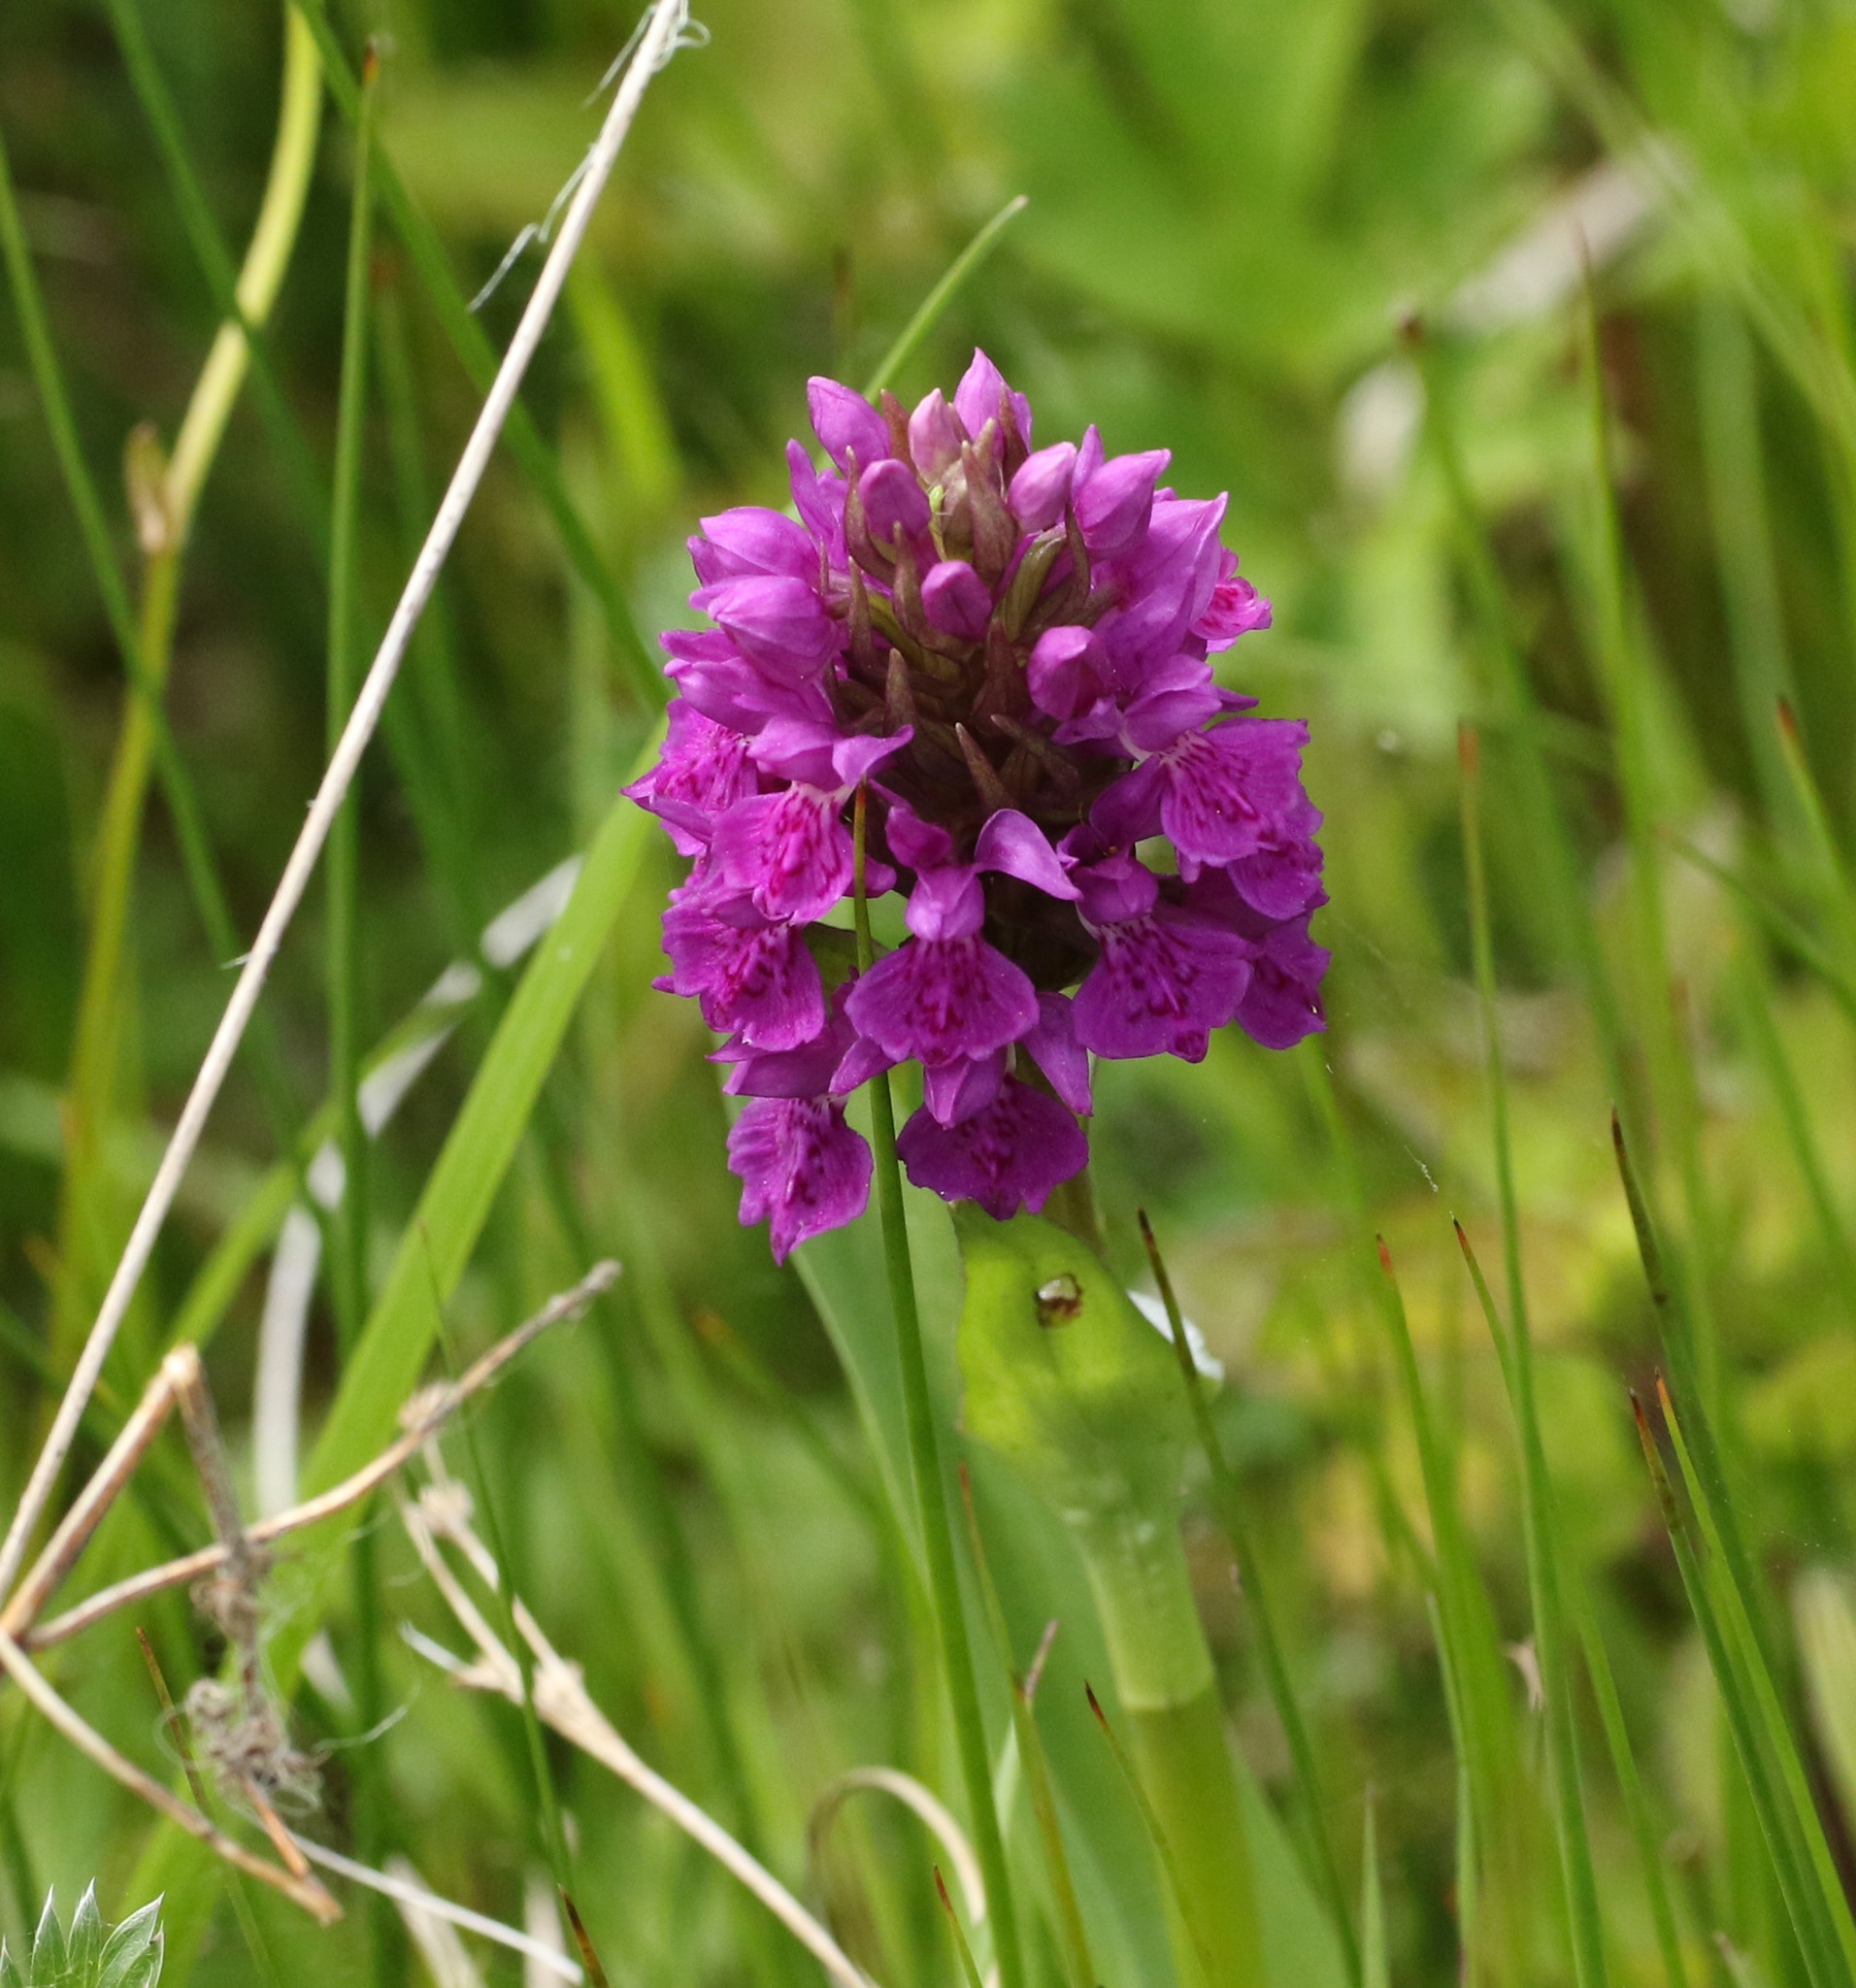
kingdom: Plantae
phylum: Tracheophyta
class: Liliopsida
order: Asparagales
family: Orchidaceae
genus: Dactylorhiza
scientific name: Dactylorhiza majalis
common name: Marsh orchid
